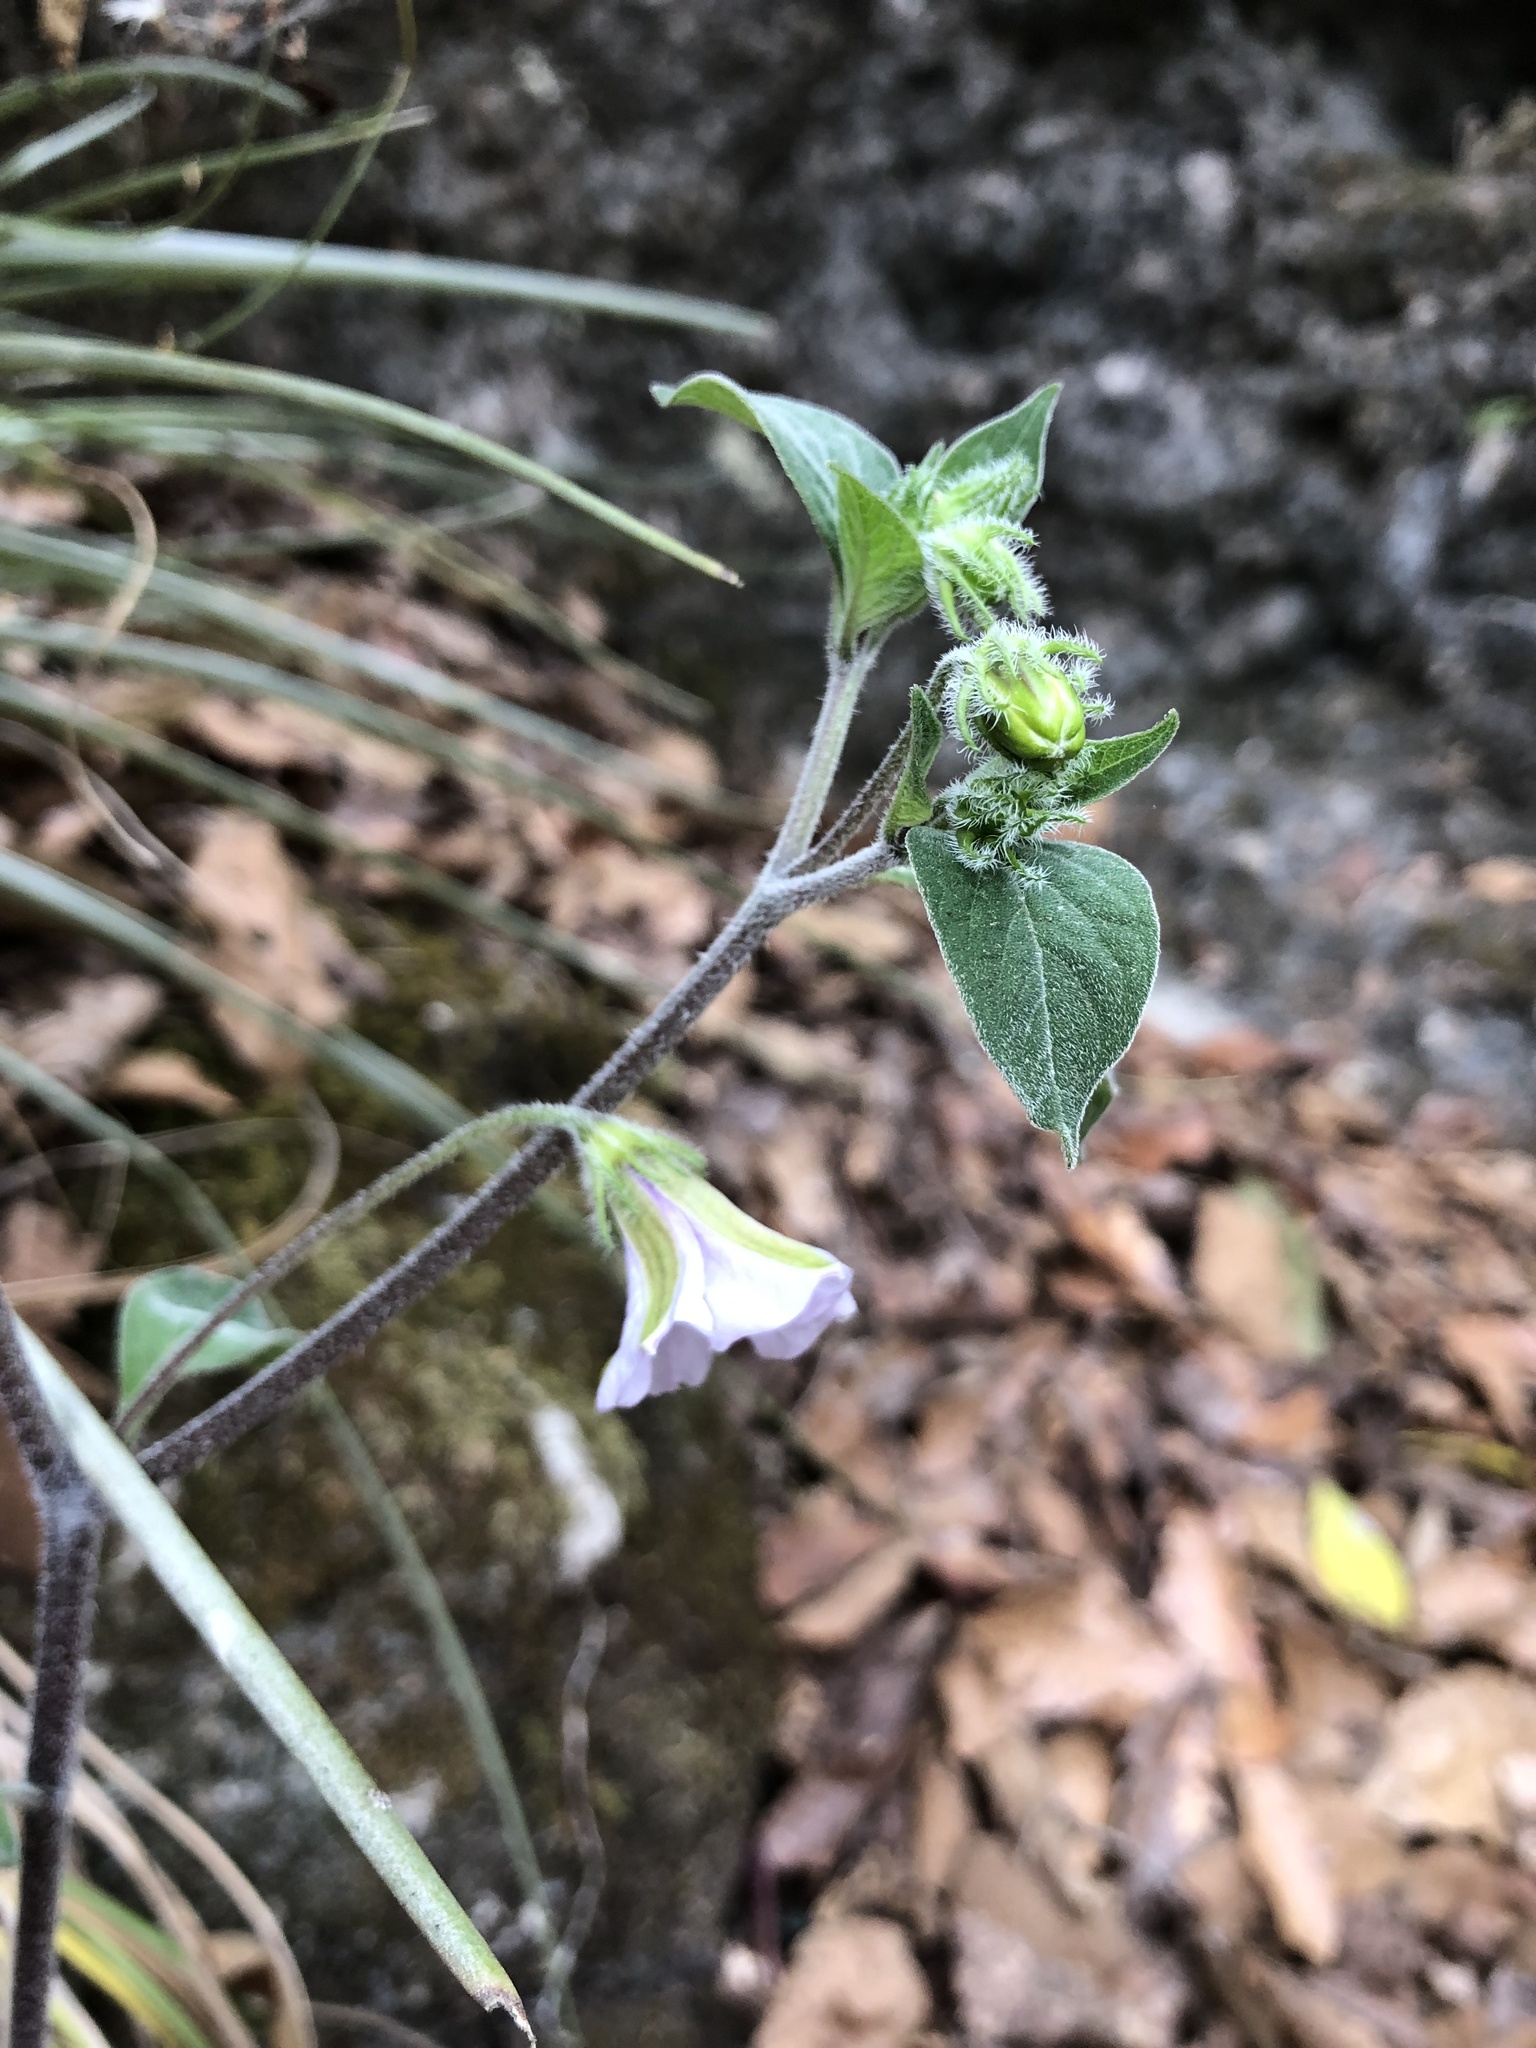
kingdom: Plantae
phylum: Tracheophyta
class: Magnoliopsida
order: Solanales
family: Solanaceae
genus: Lycianthes
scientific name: Lycianthes ciliolata
